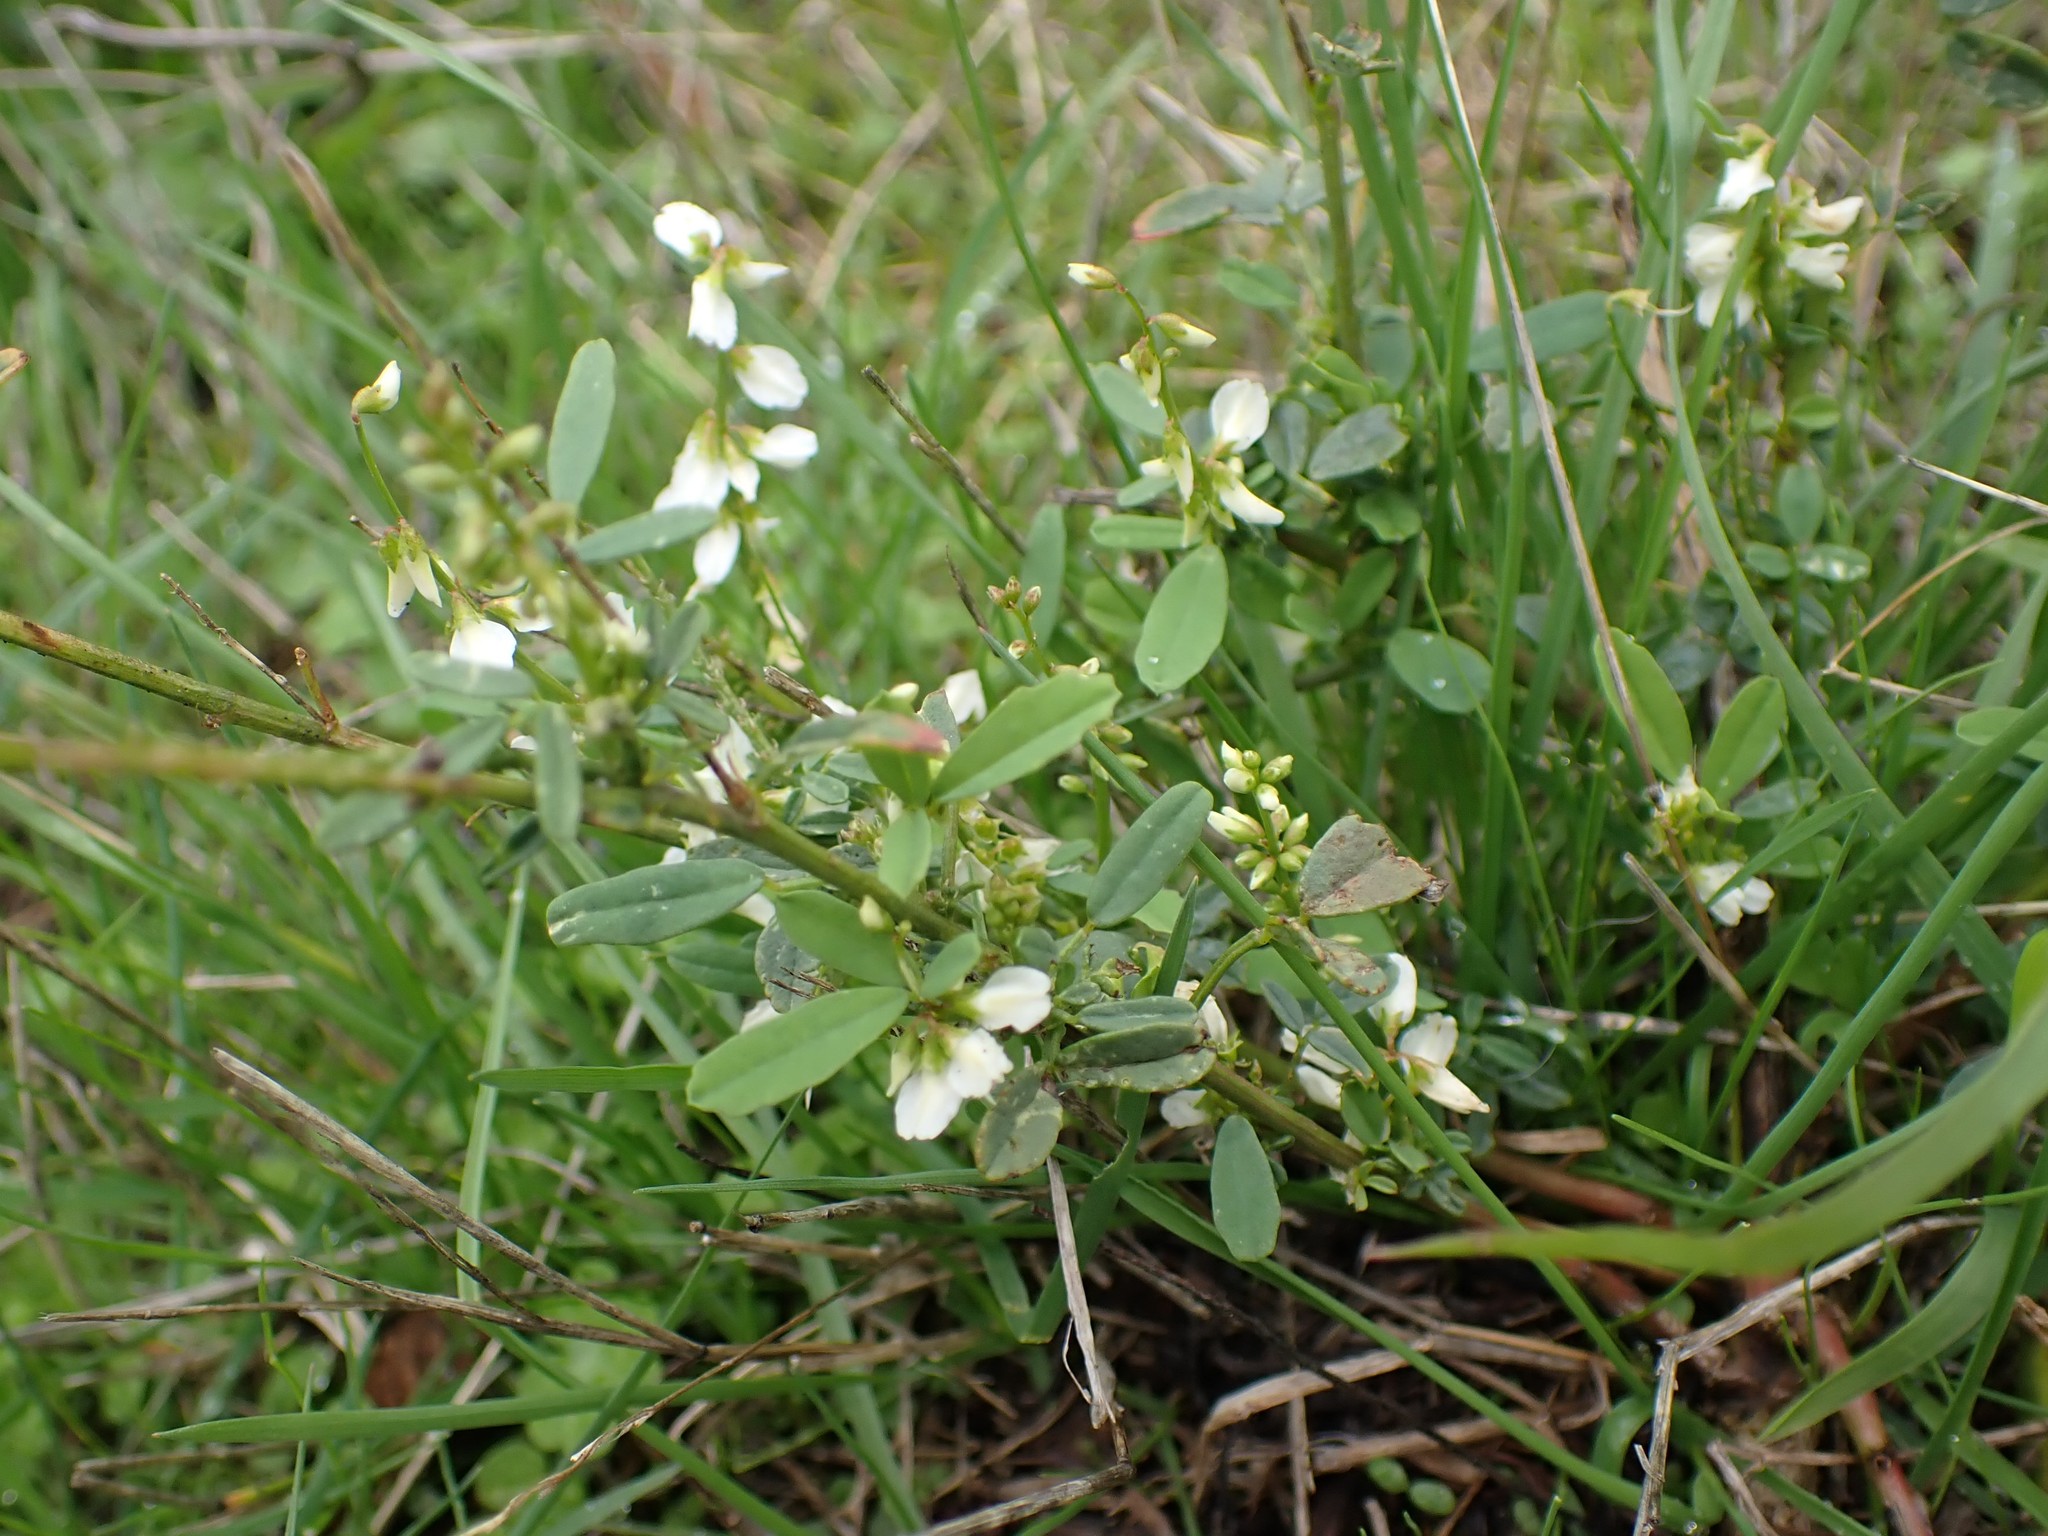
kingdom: Plantae
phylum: Tracheophyta
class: Magnoliopsida
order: Fabales
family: Fabaceae
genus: Melilotus
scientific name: Melilotus albus
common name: White melilot
